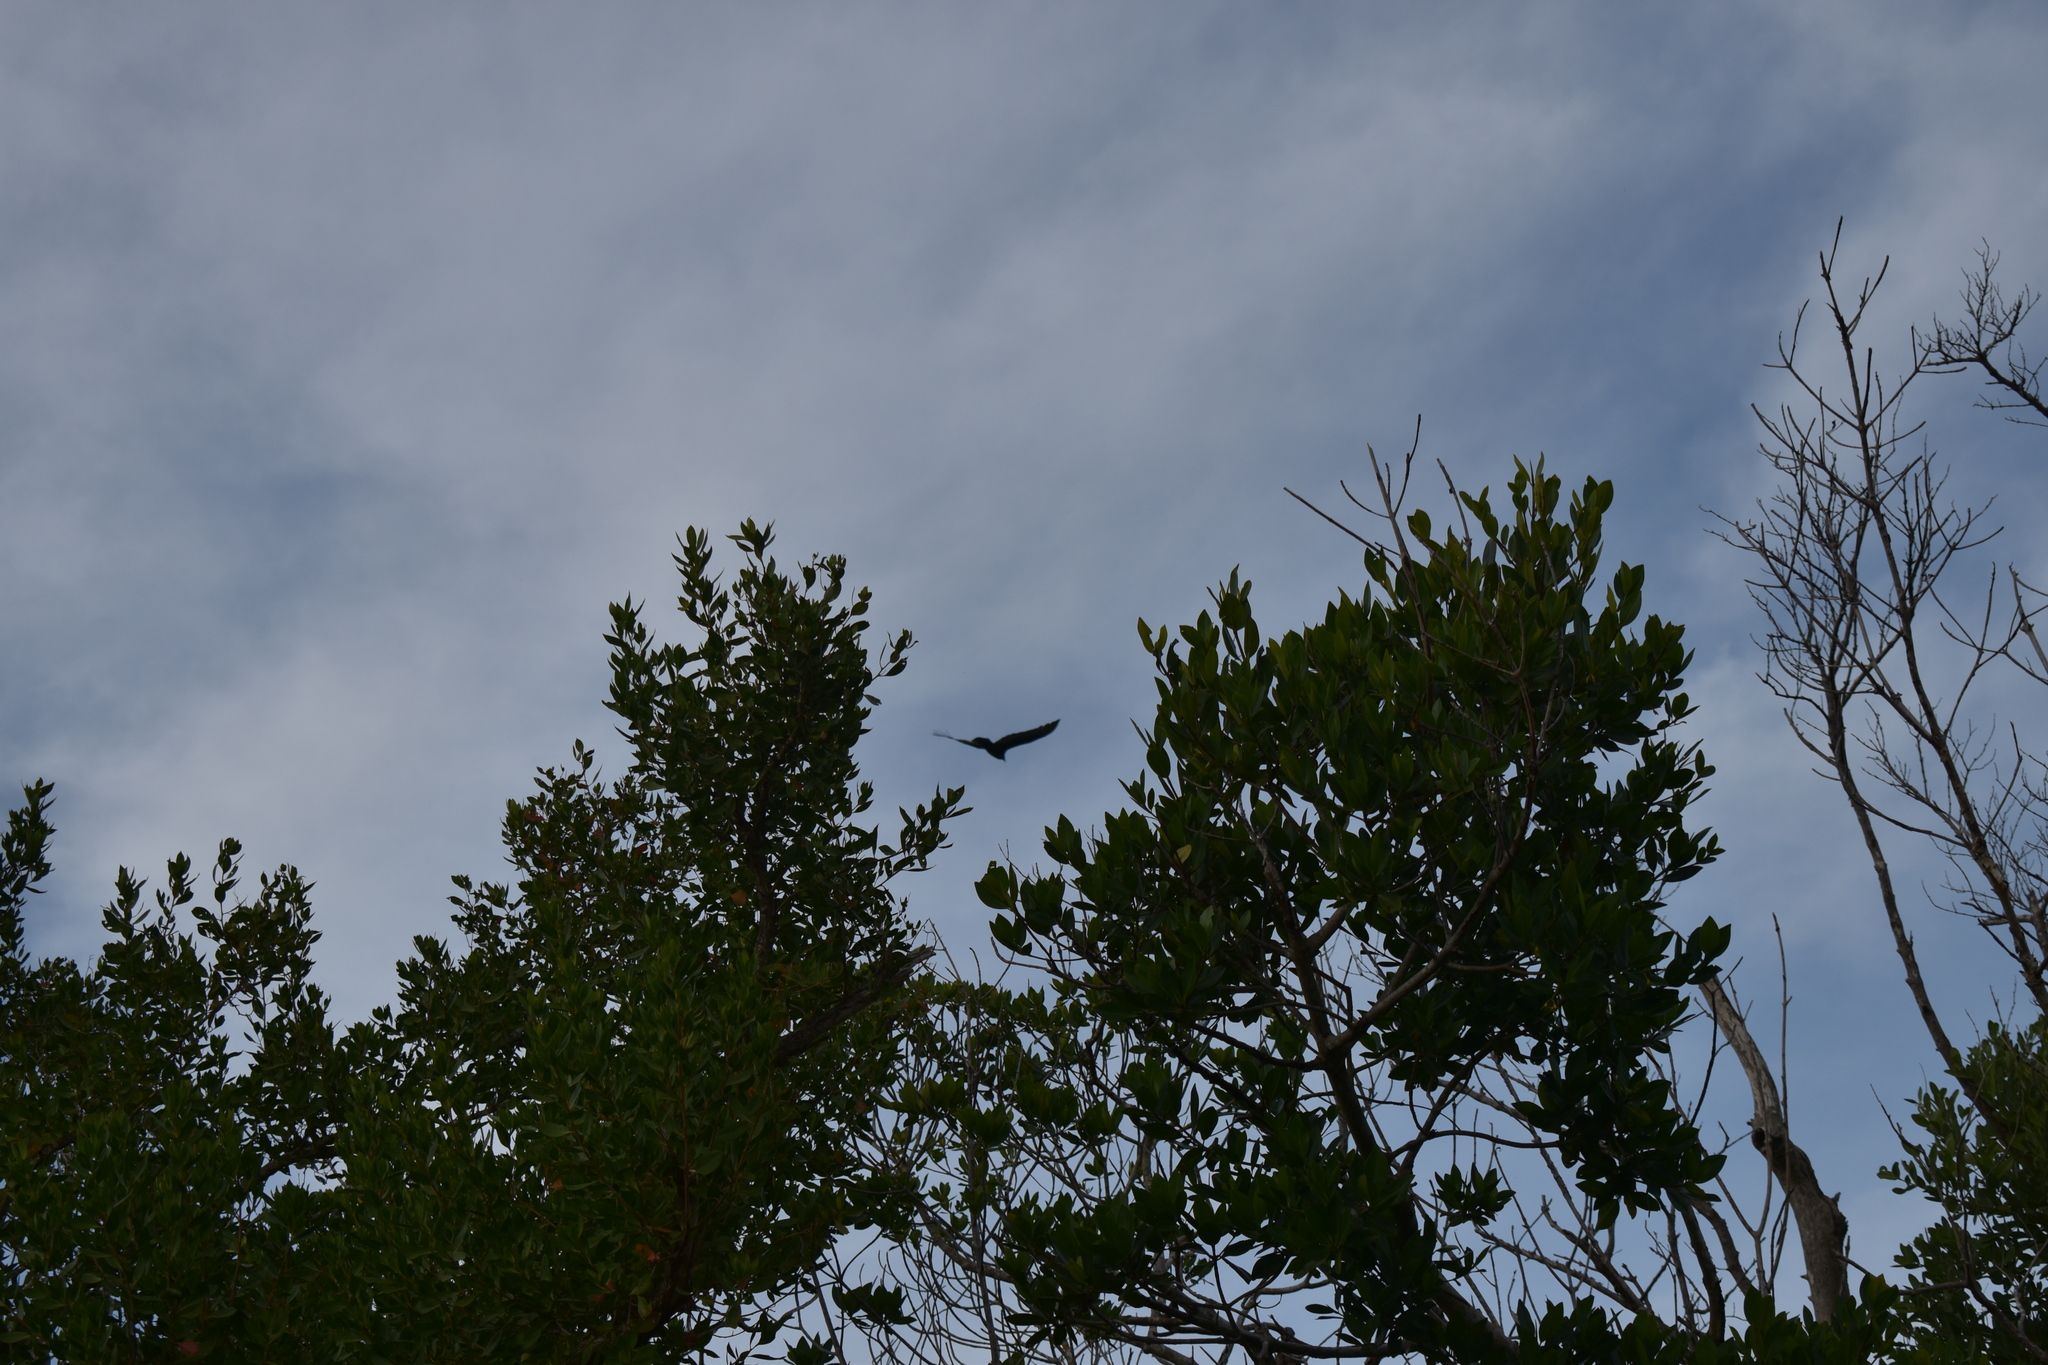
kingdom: Animalia
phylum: Chordata
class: Aves
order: Accipitriformes
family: Cathartidae
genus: Cathartes
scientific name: Cathartes aura
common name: Turkey vulture
